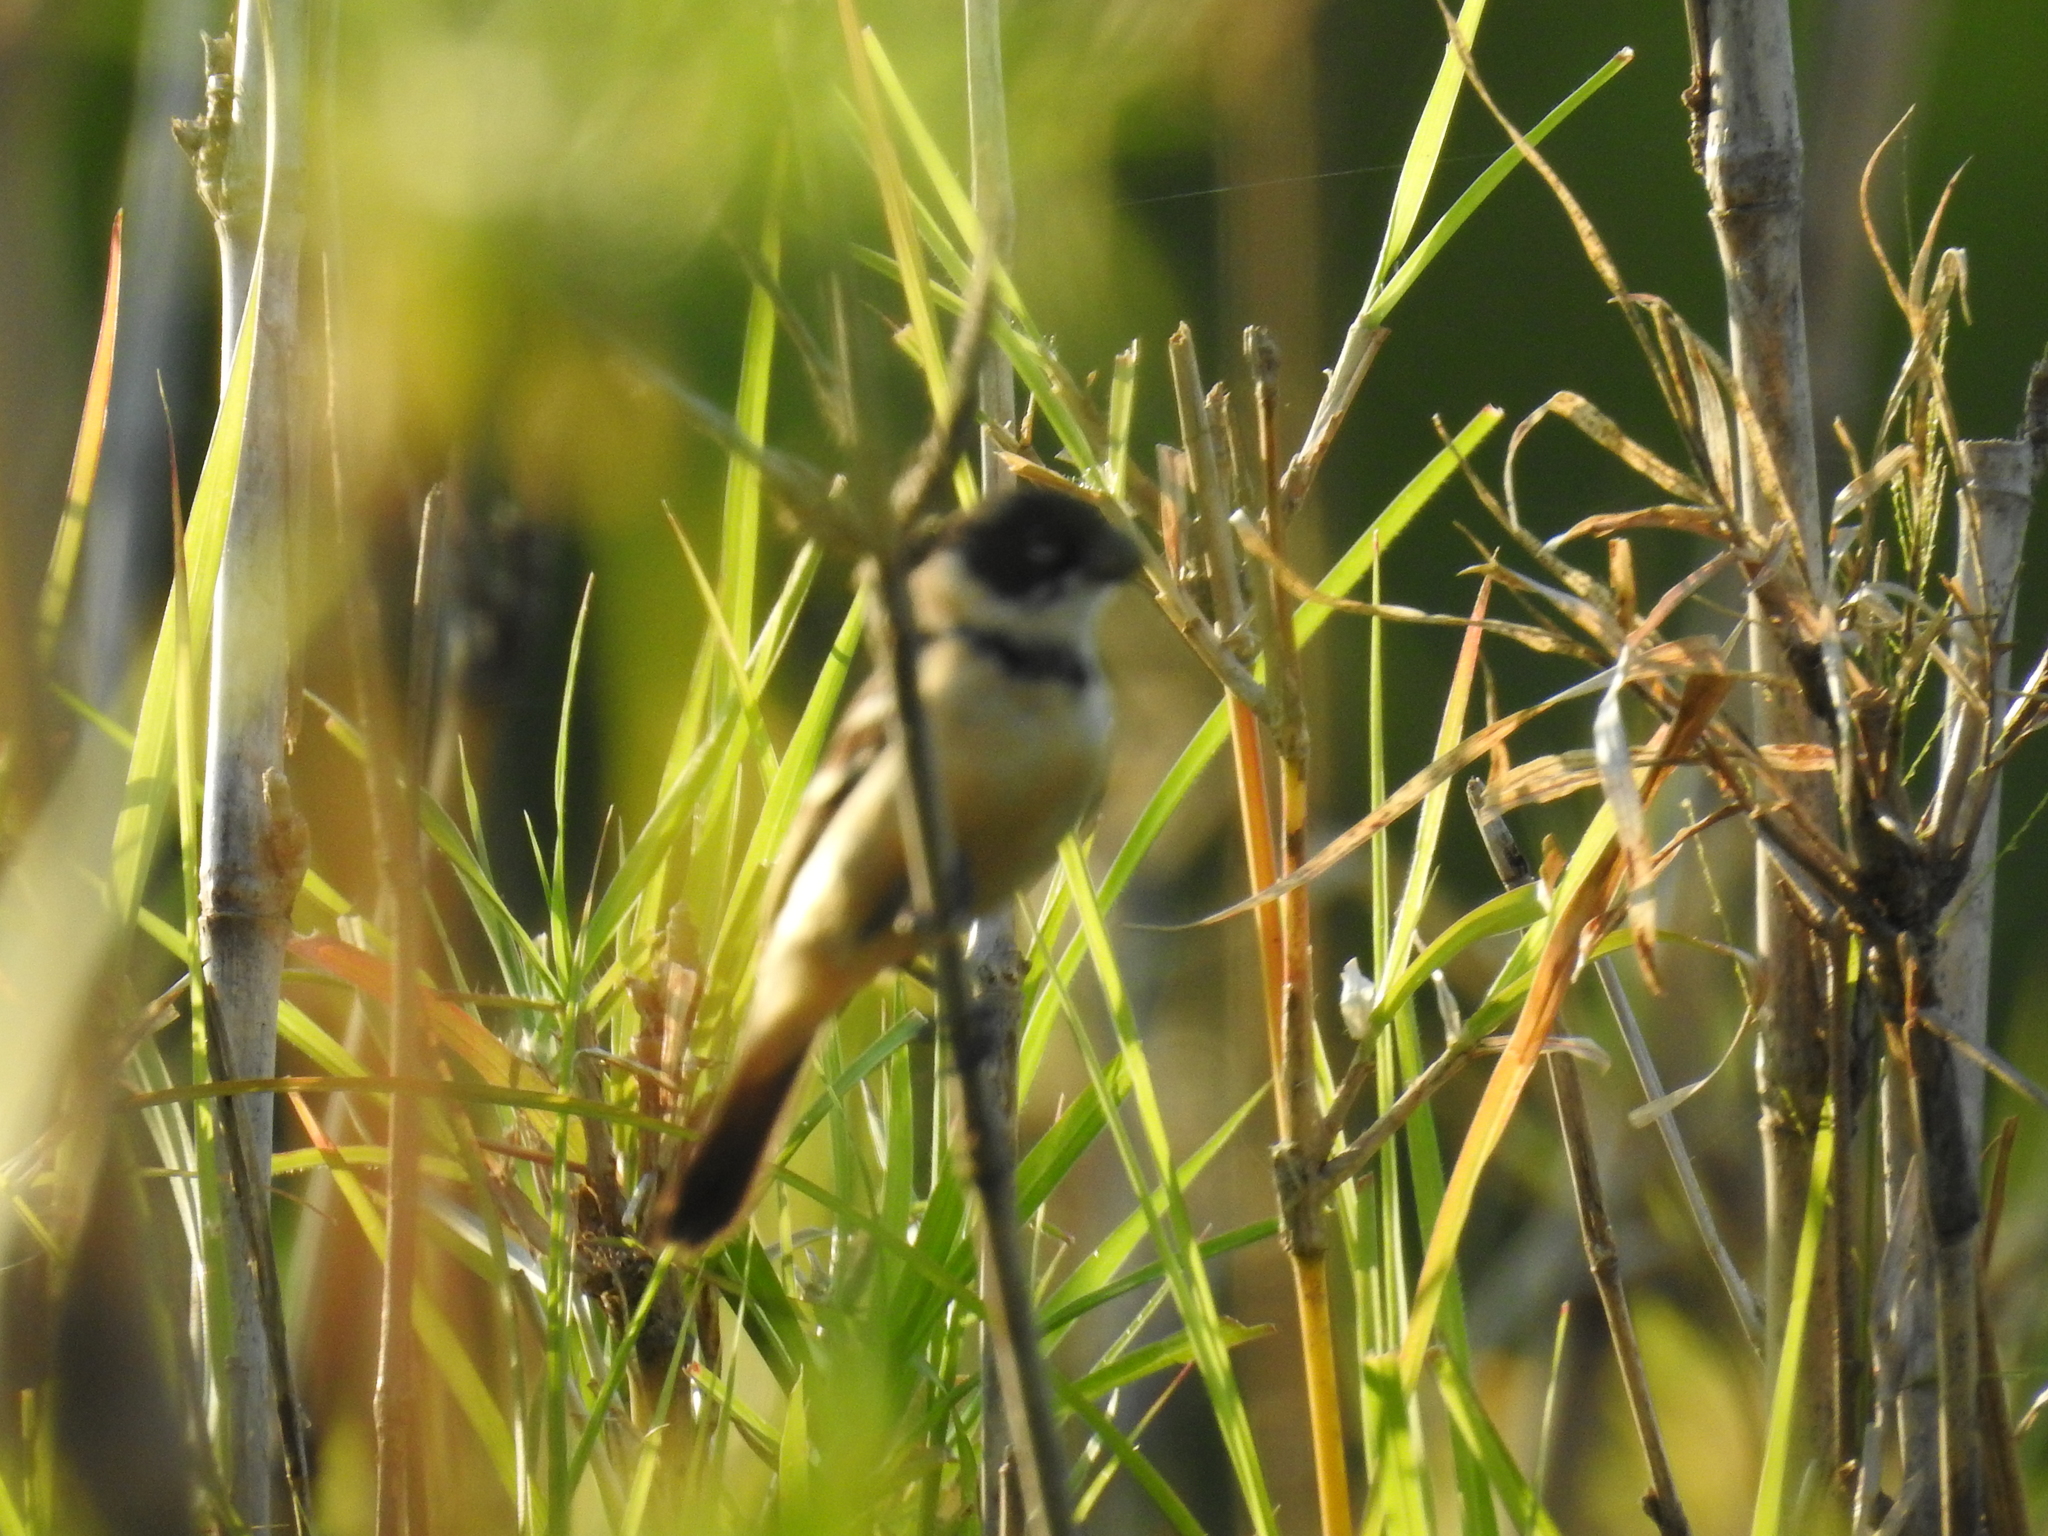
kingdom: Animalia
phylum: Chordata
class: Aves
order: Passeriformes
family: Thraupidae
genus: Sporophila
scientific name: Sporophila morelleti
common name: Morelet's seedeater
